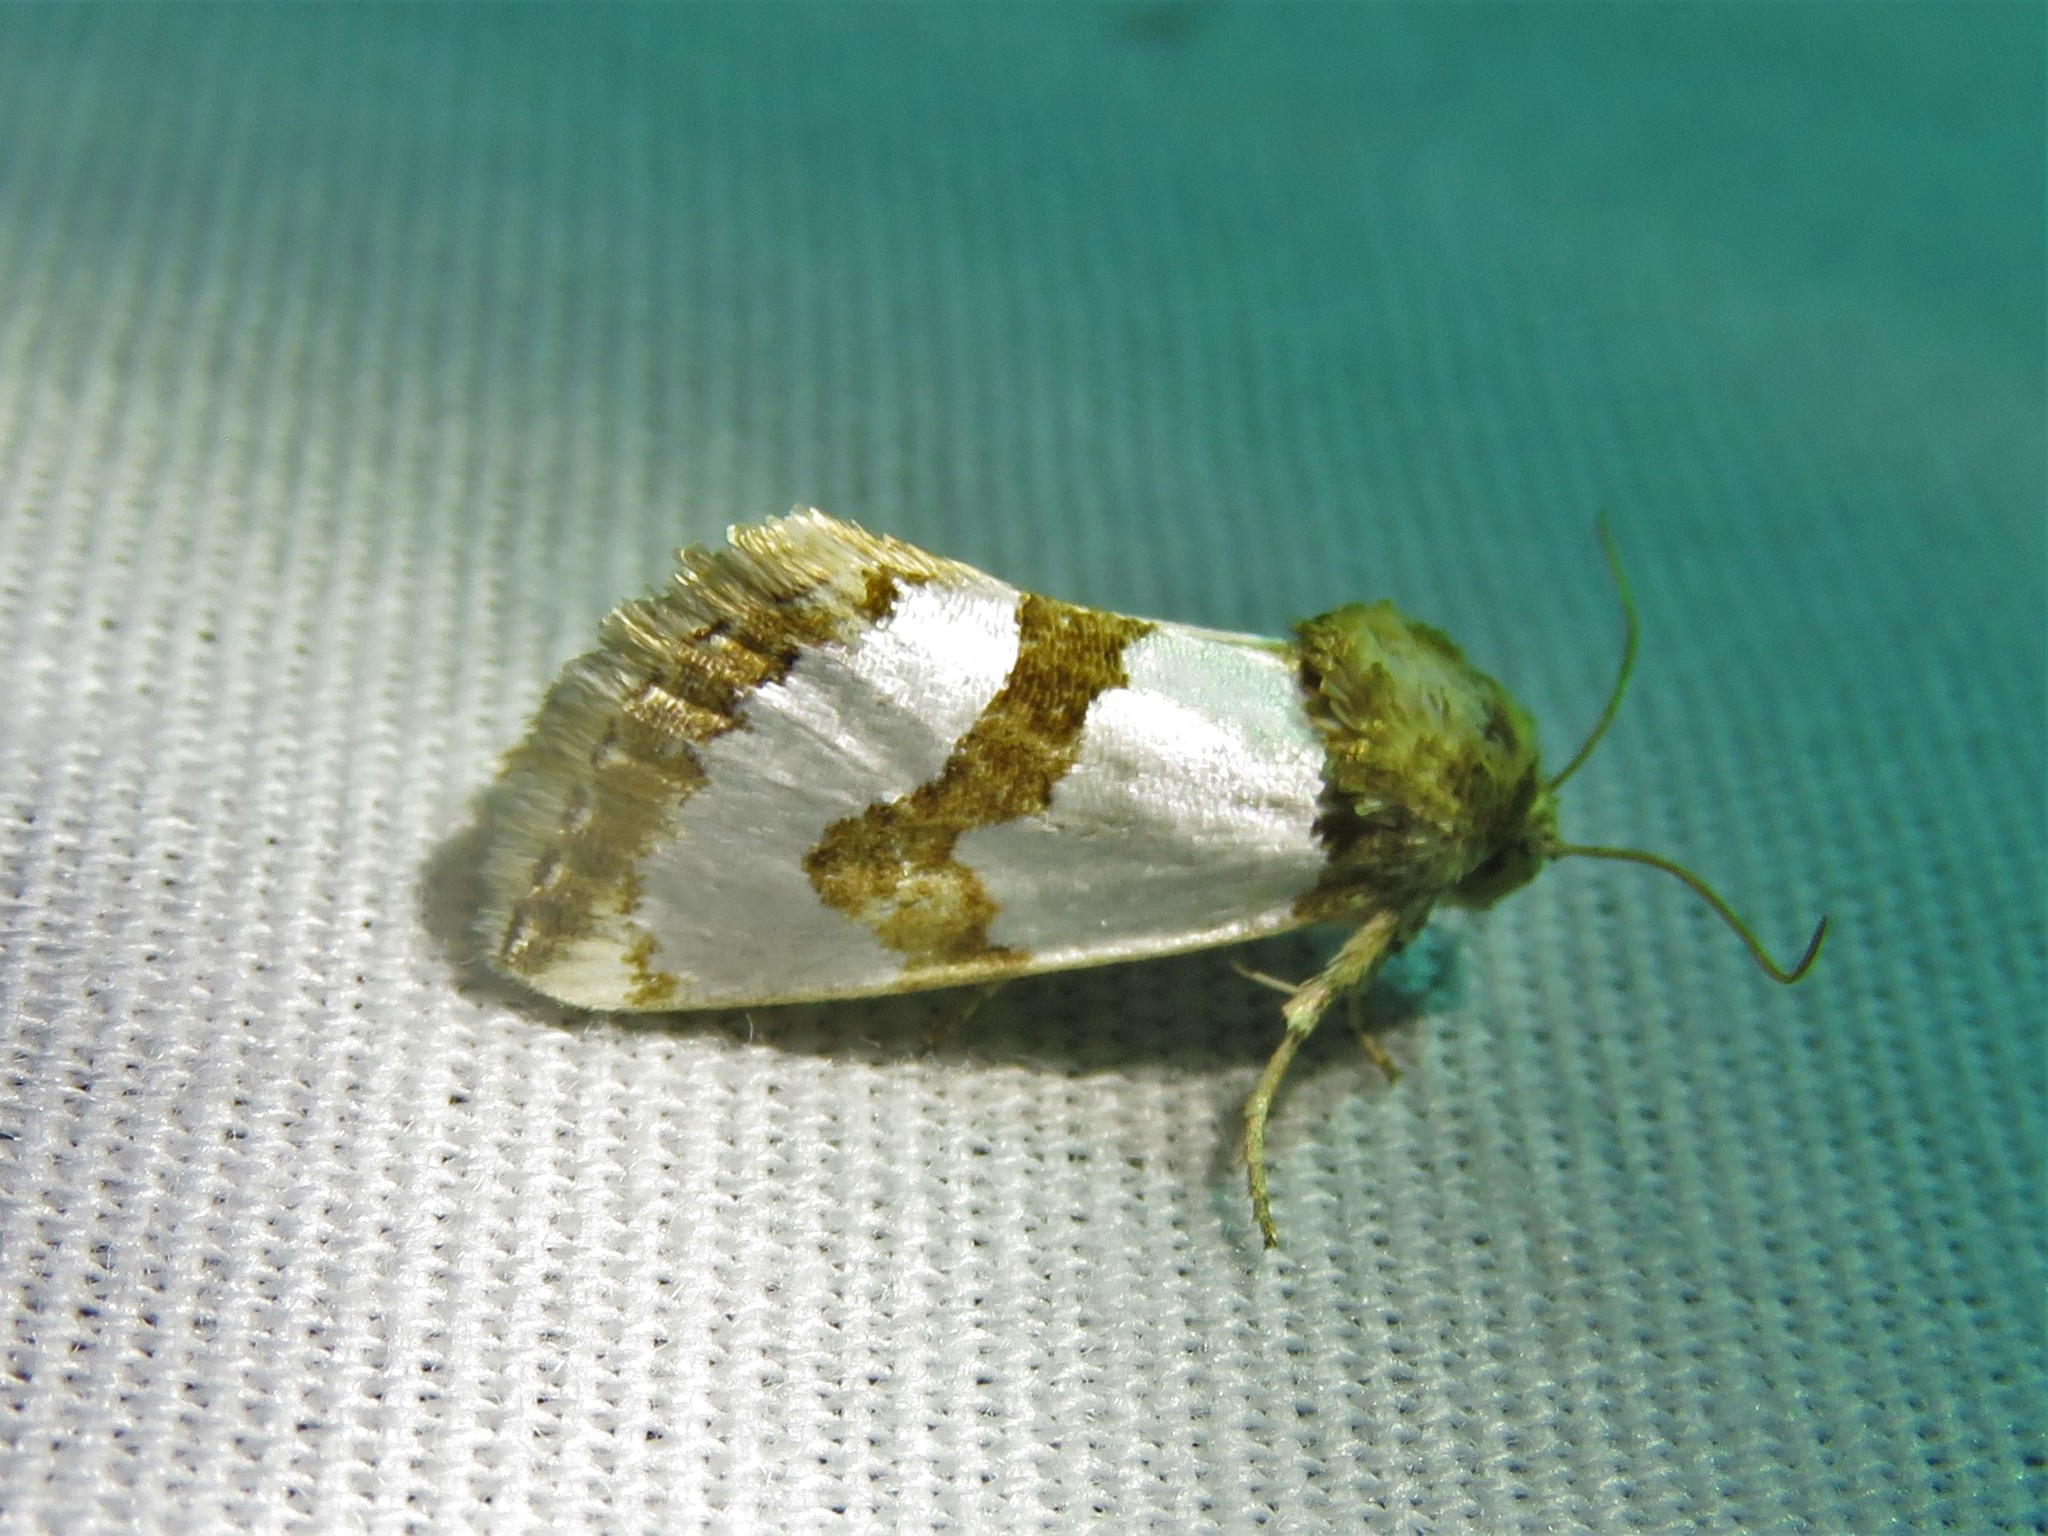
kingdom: Animalia
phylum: Arthropoda
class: Insecta
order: Lepidoptera
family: Noctuidae
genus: Schinia
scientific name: Schinia chrysellus
